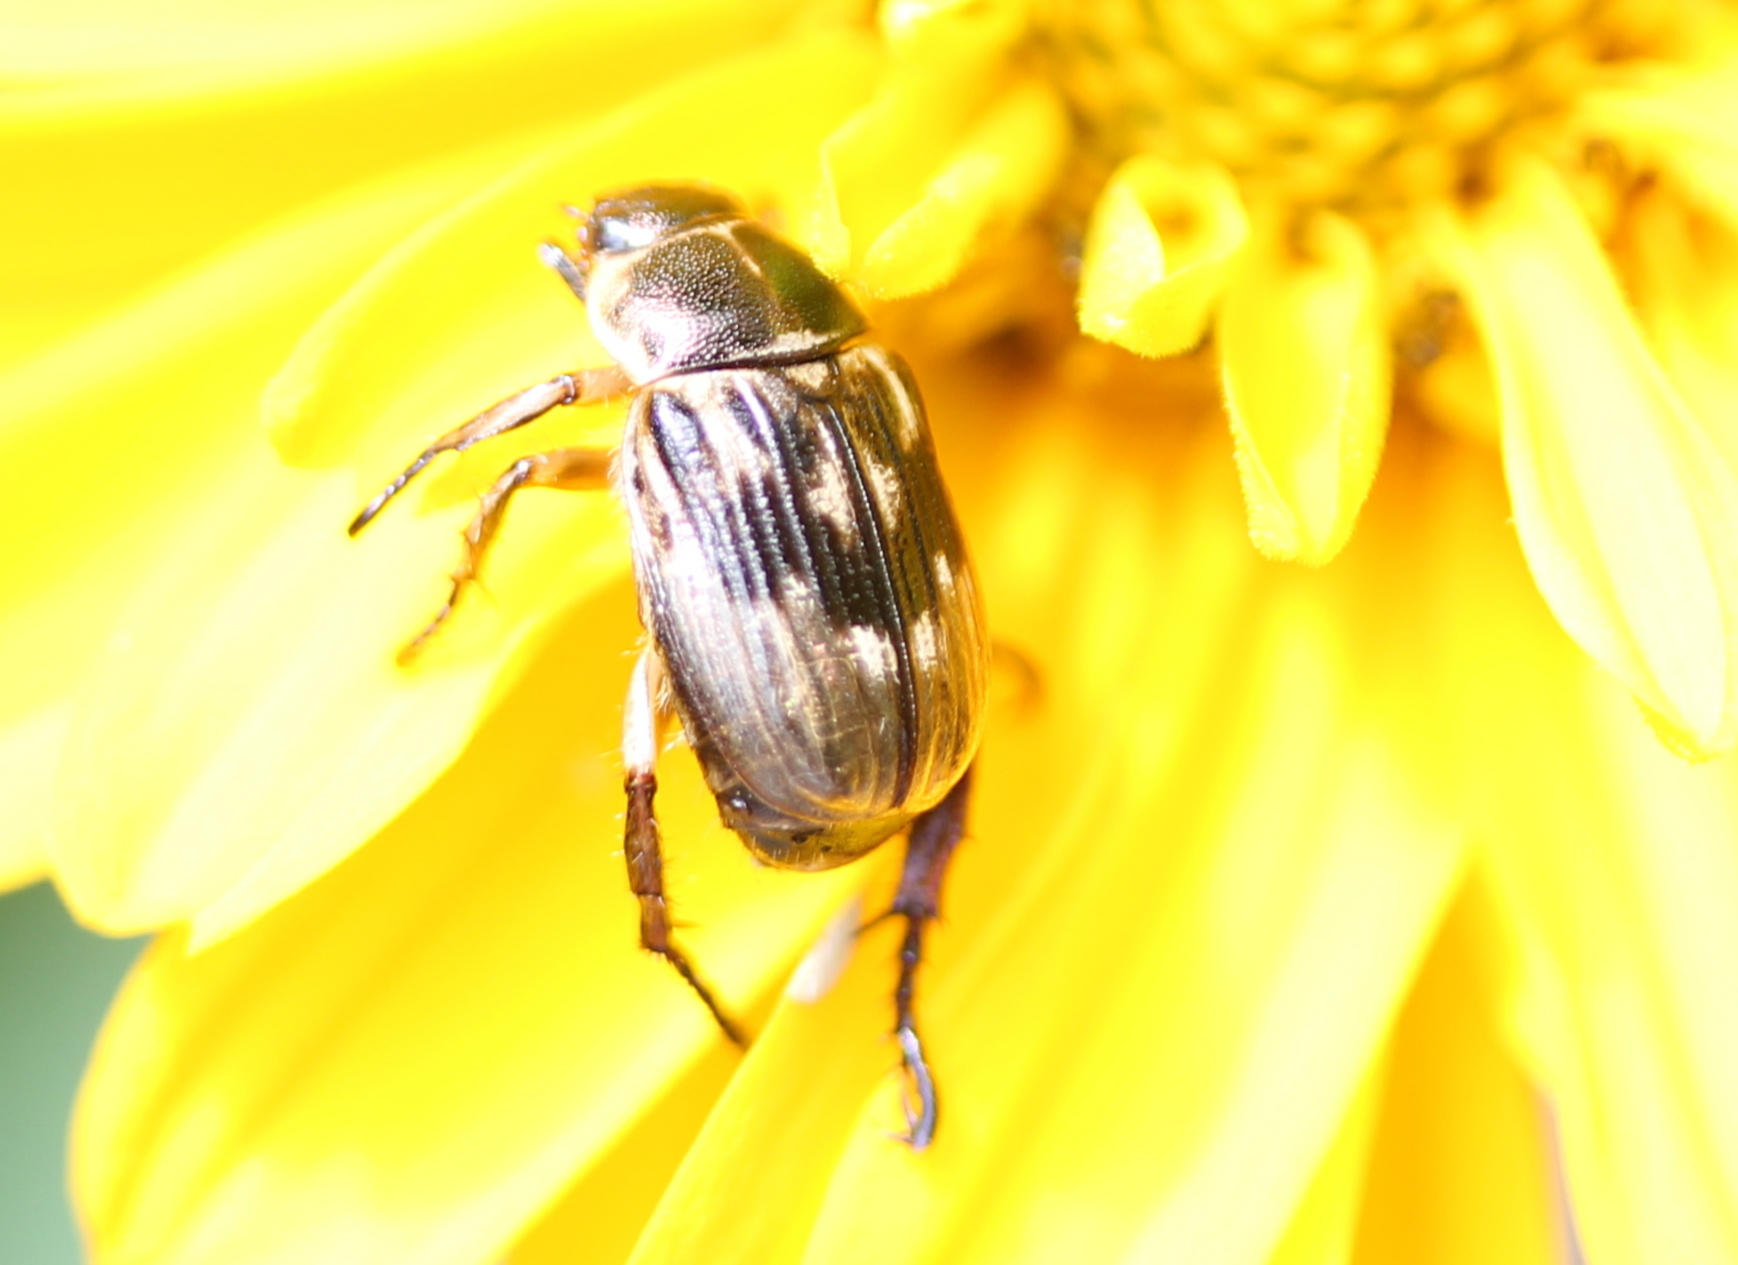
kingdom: Animalia
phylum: Arthropoda
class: Insecta
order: Coleoptera
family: Scarabaeidae
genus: Exomala
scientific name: Exomala orientalis
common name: Oriental beetle
